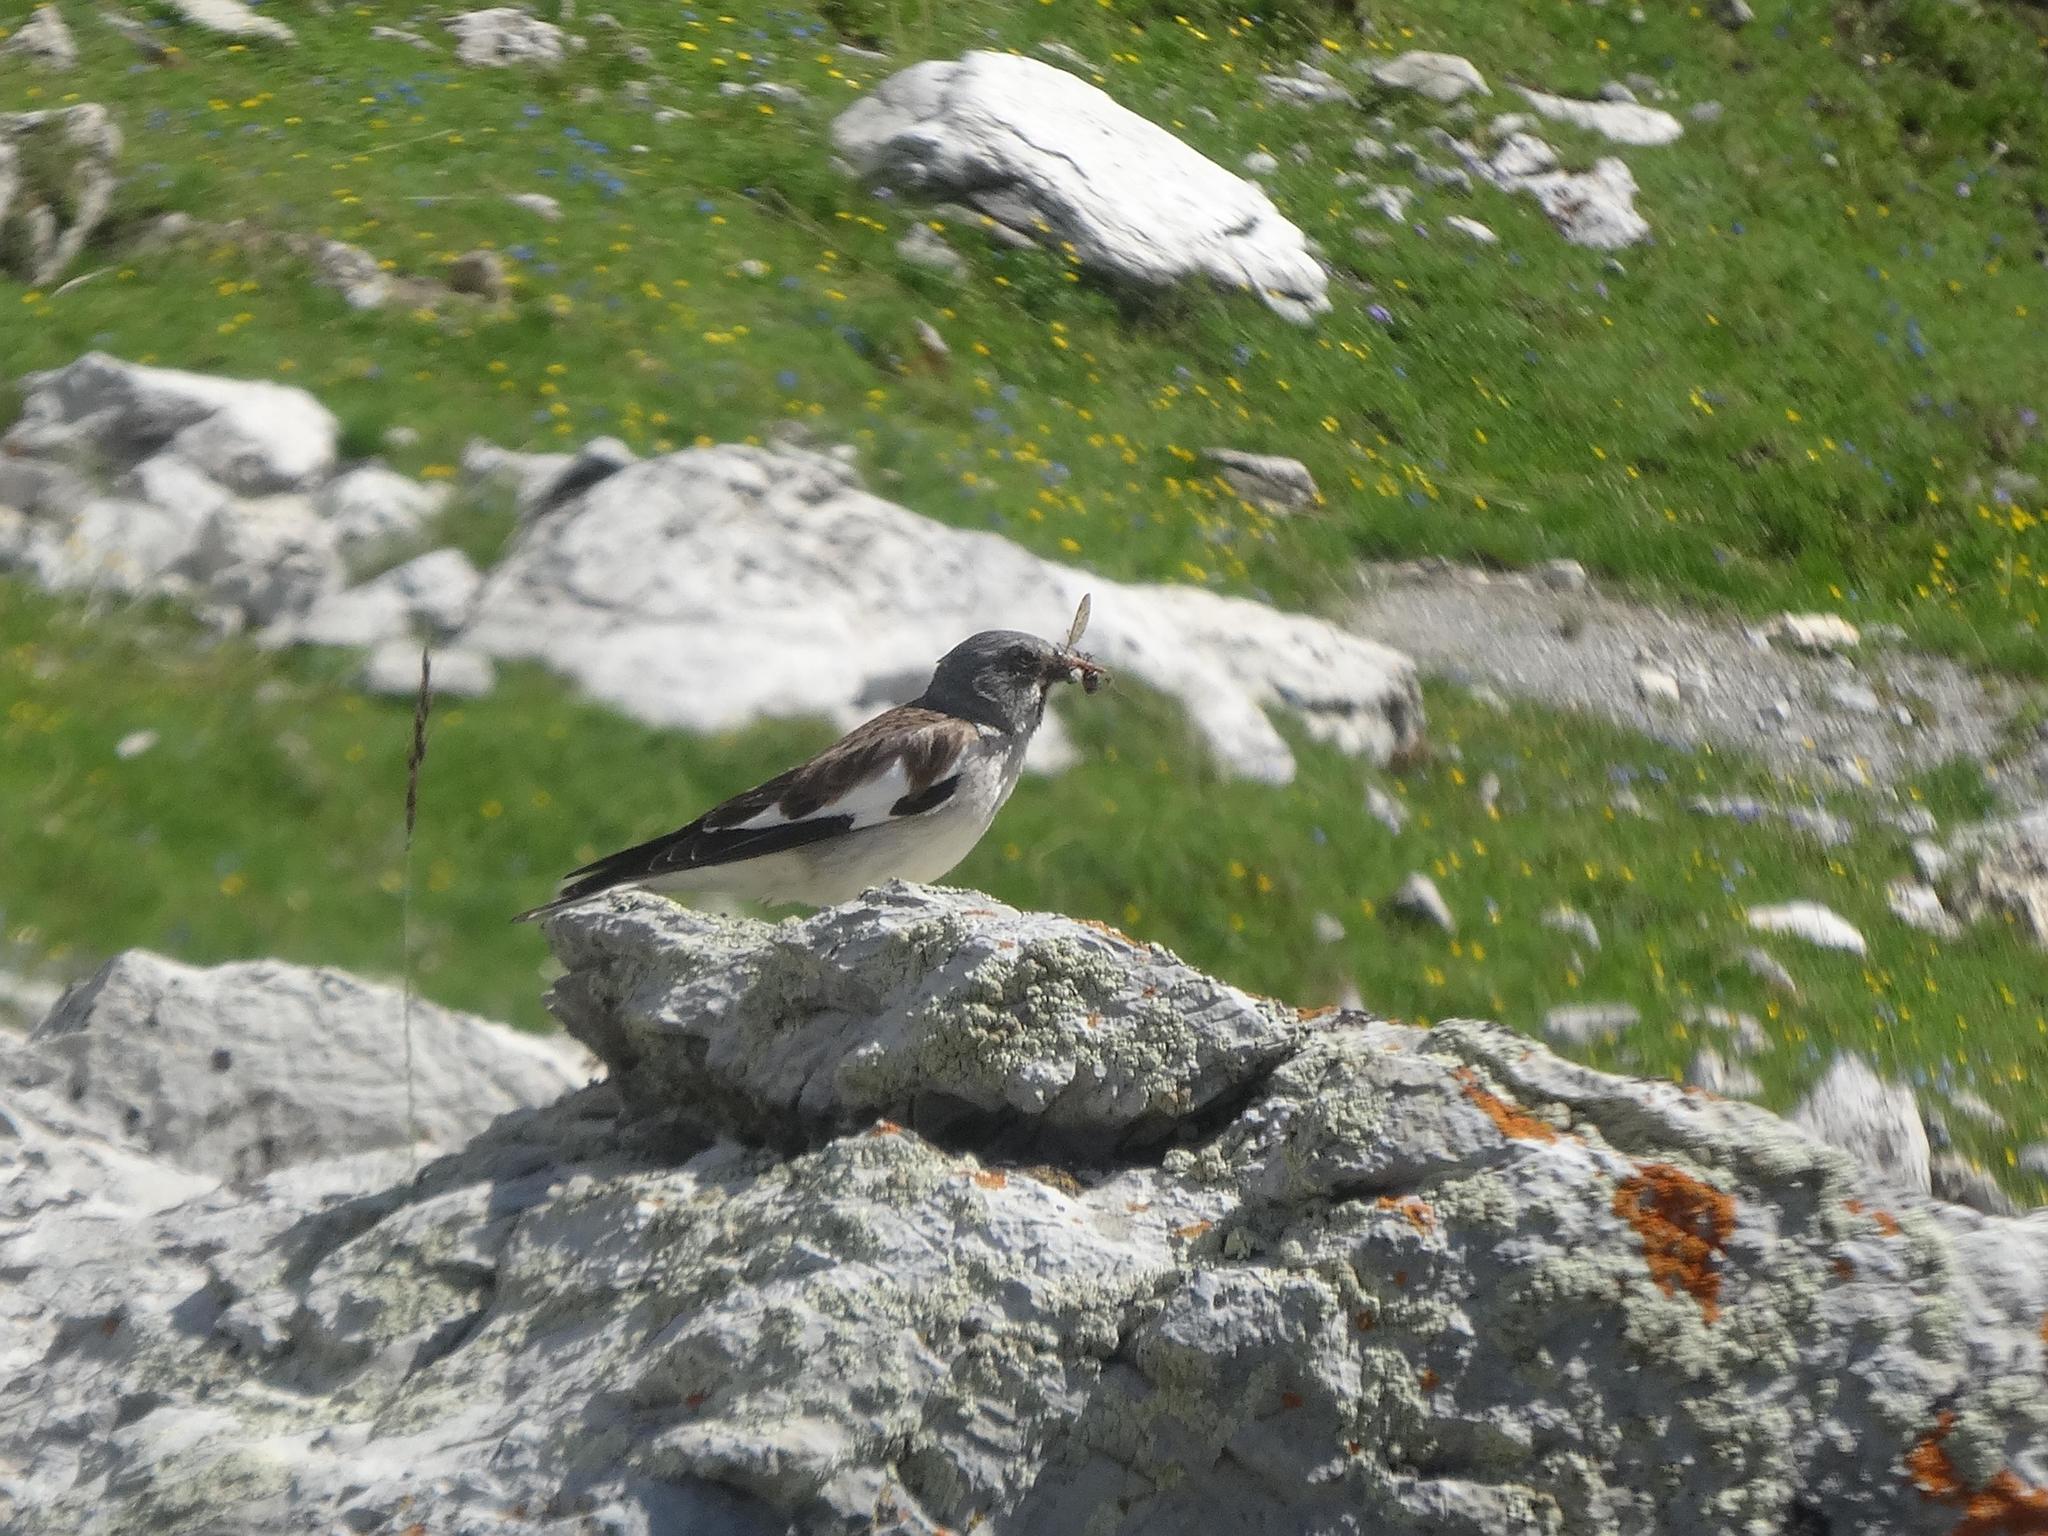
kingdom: Animalia
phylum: Chordata
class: Aves
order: Passeriformes
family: Passeridae
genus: Montifringilla
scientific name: Montifringilla nivalis
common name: White-winged snowfinch
